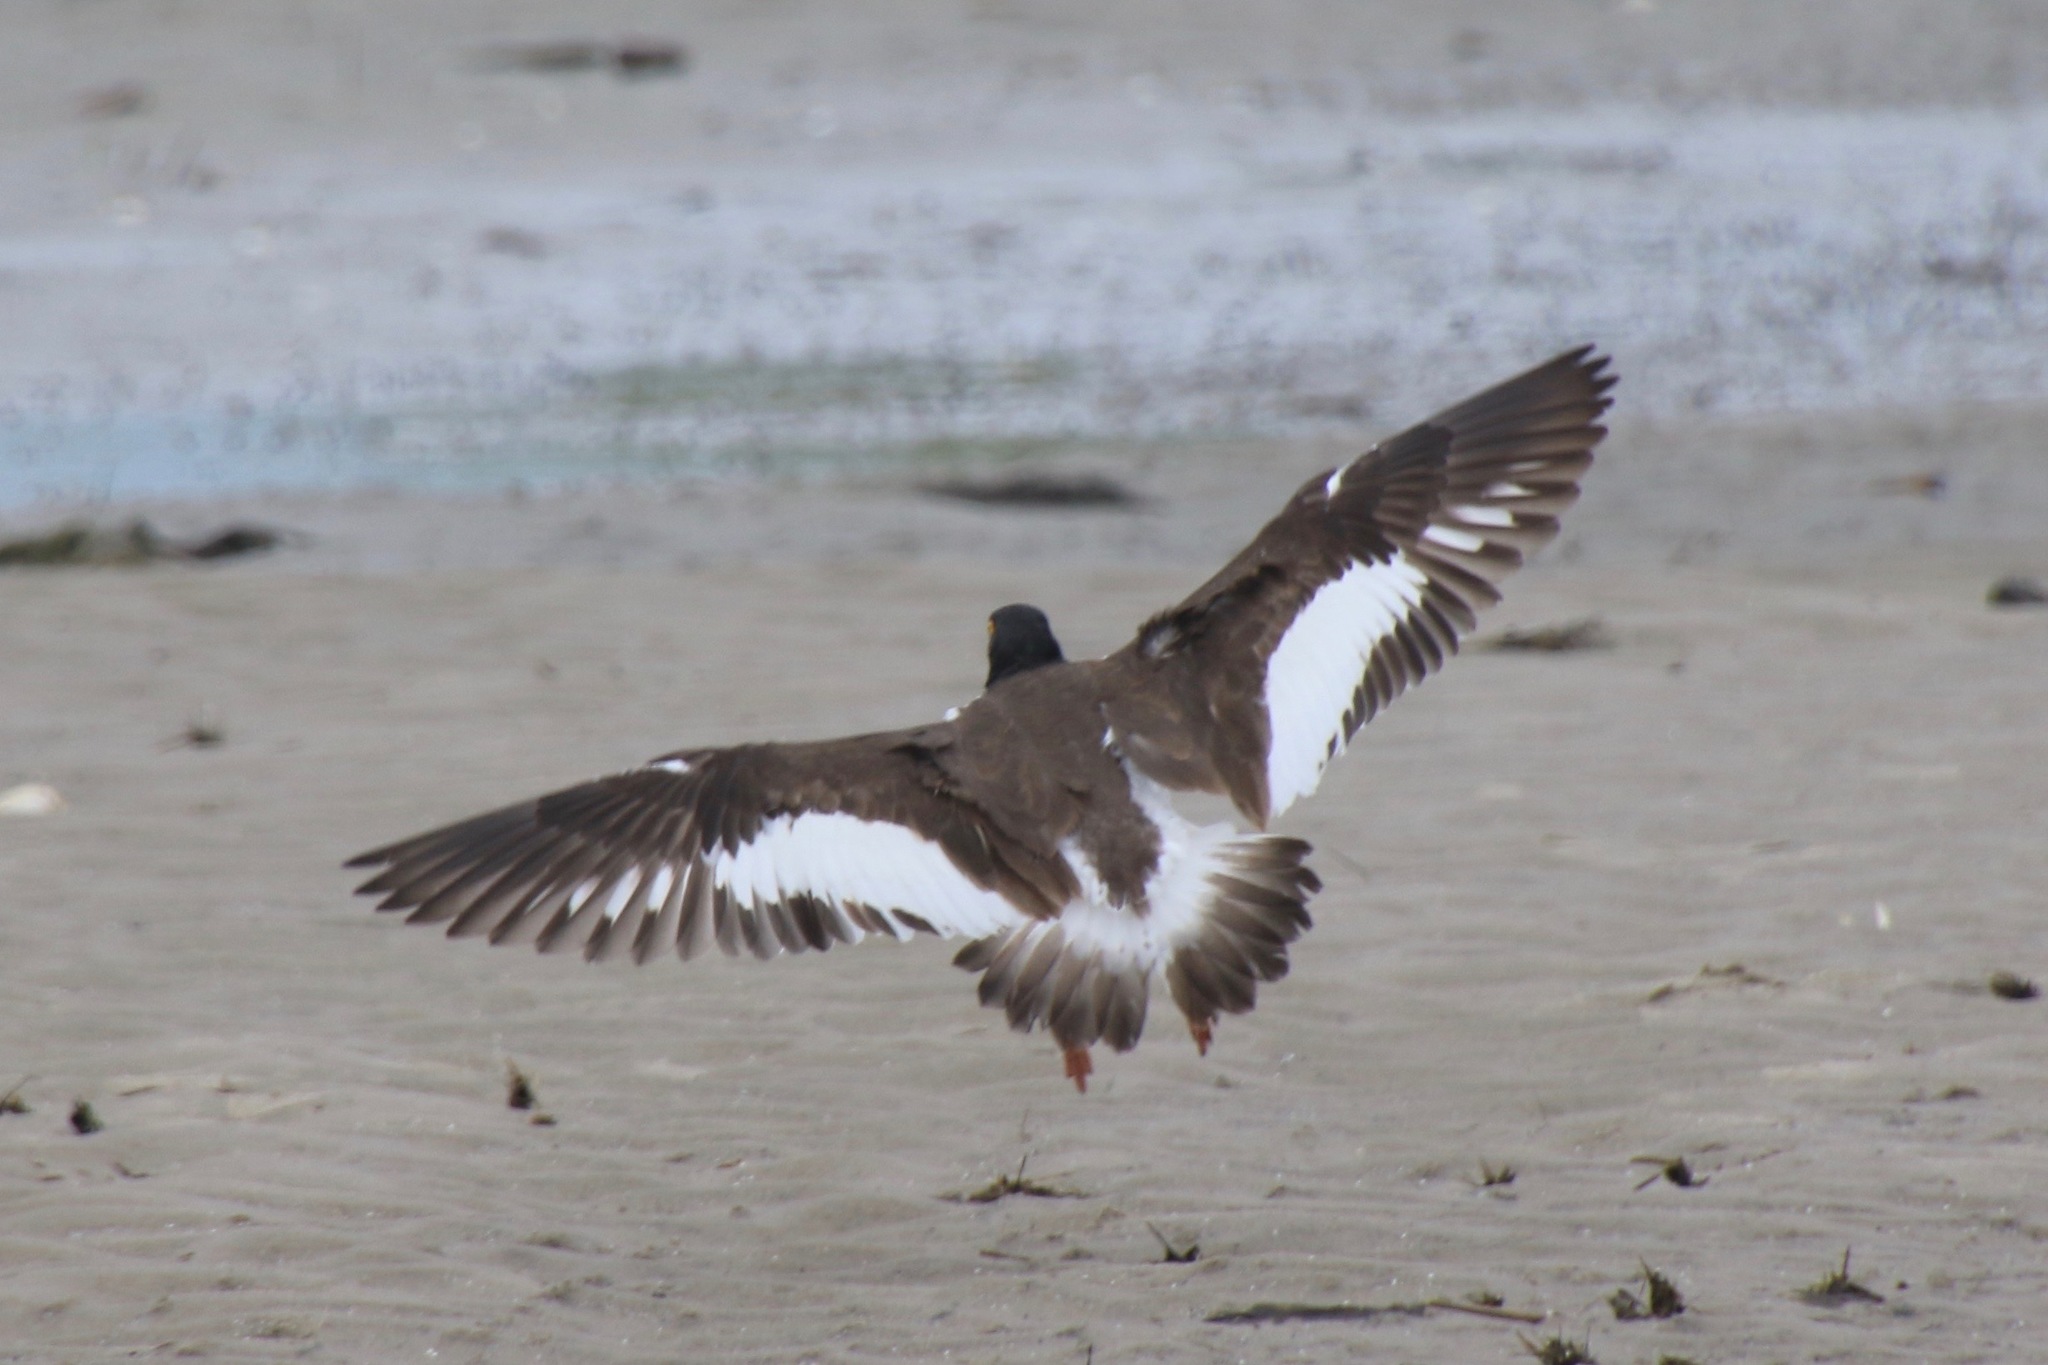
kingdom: Animalia
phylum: Chordata
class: Aves
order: Charadriiformes
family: Haematopodidae
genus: Haematopus
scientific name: Haematopus palliatus
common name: American oystercatcher
